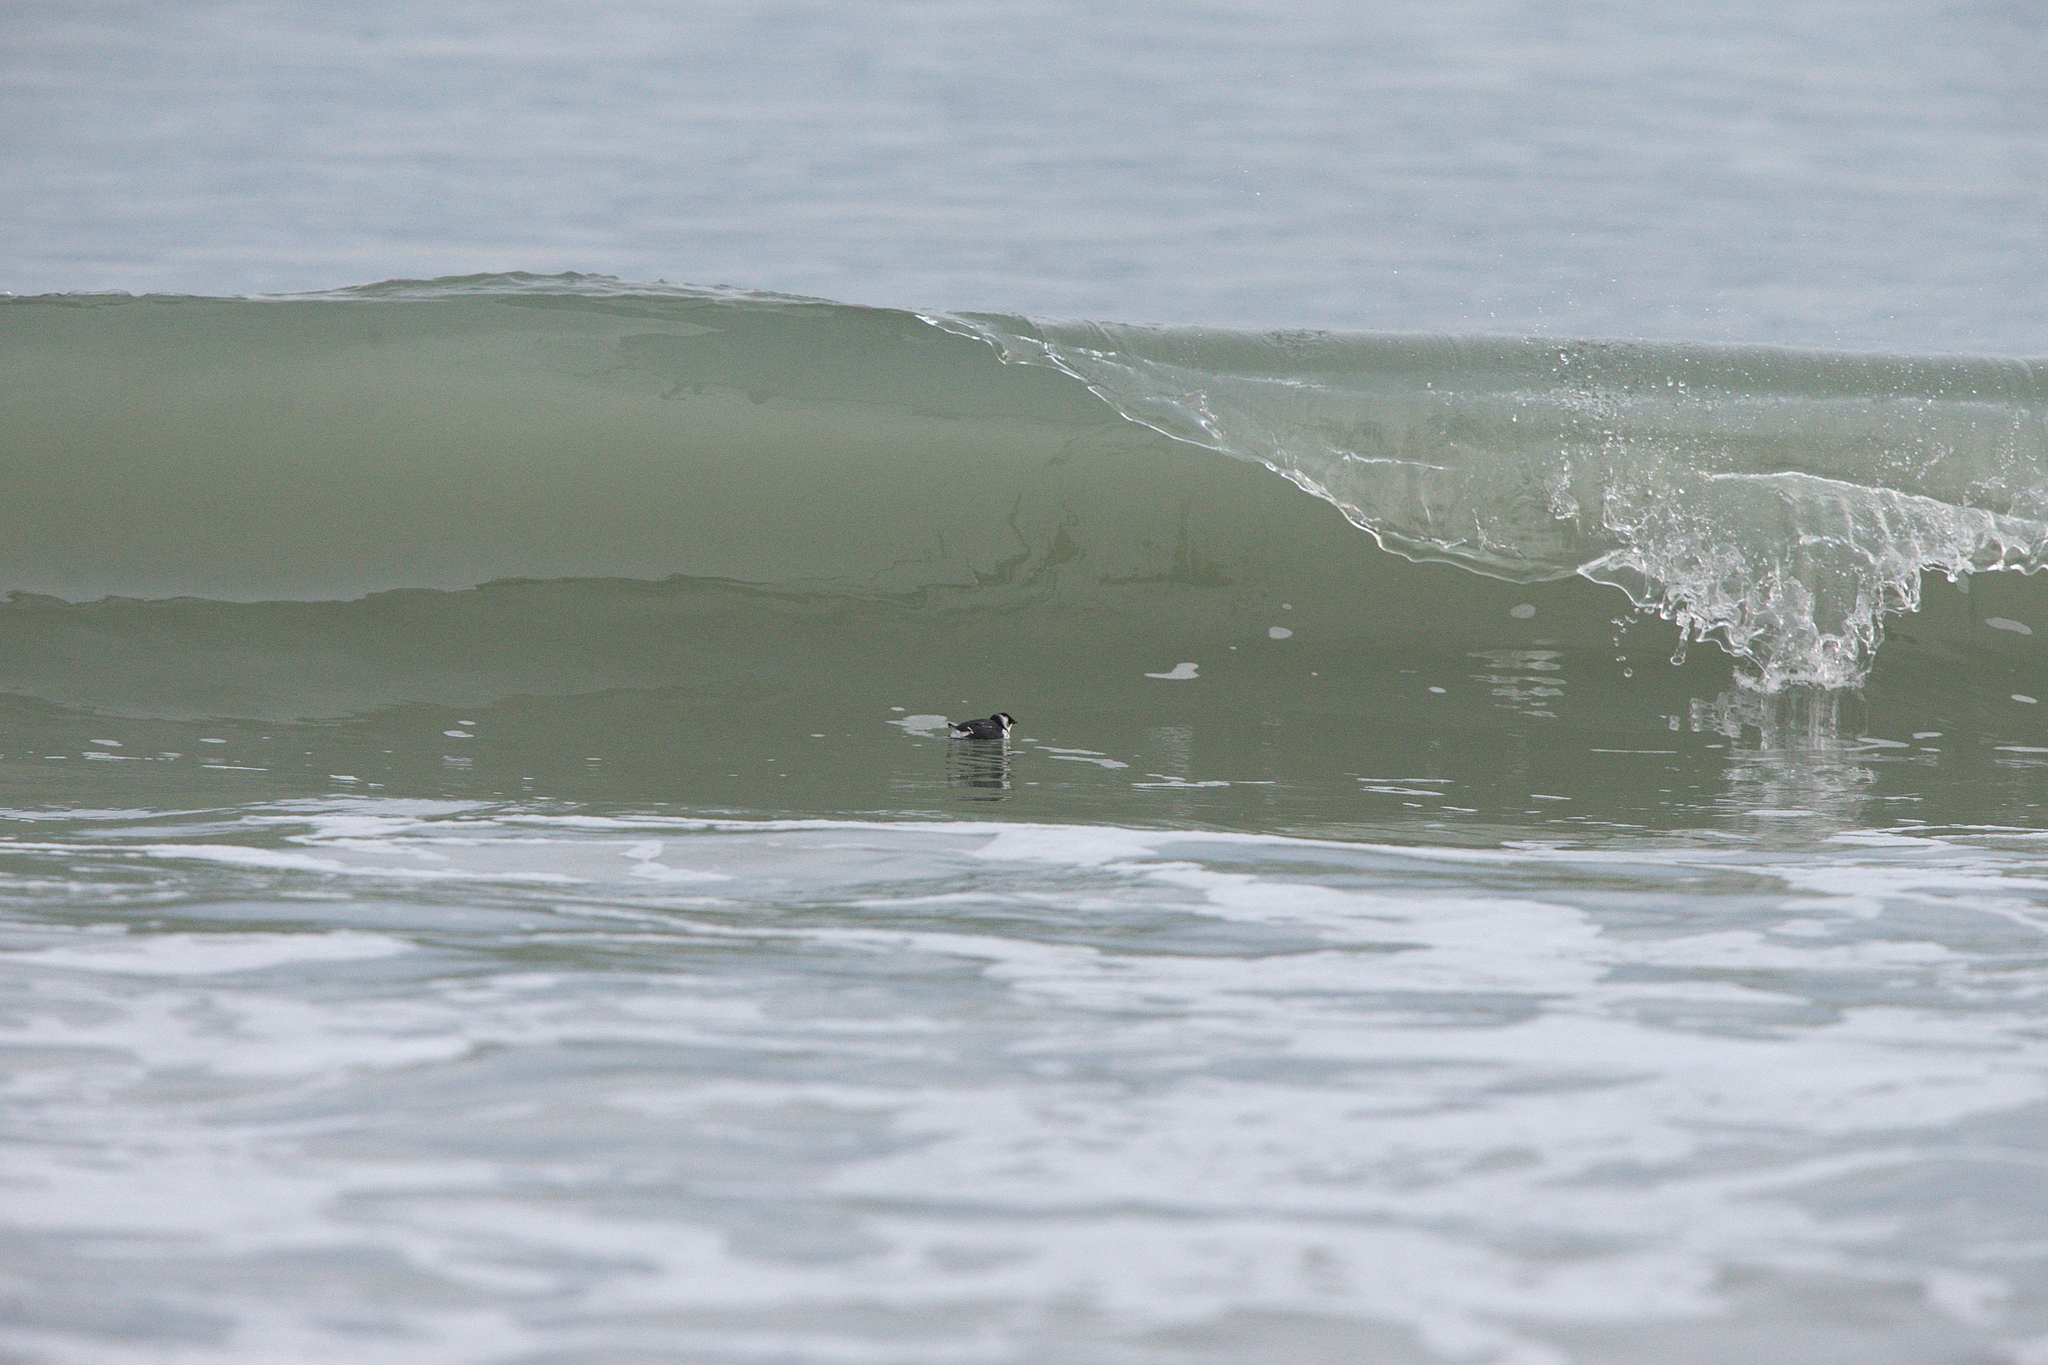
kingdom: Animalia
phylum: Chordata
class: Aves
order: Charadriiformes
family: Alcidae
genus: Alle
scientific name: Alle alle
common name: Little auk
